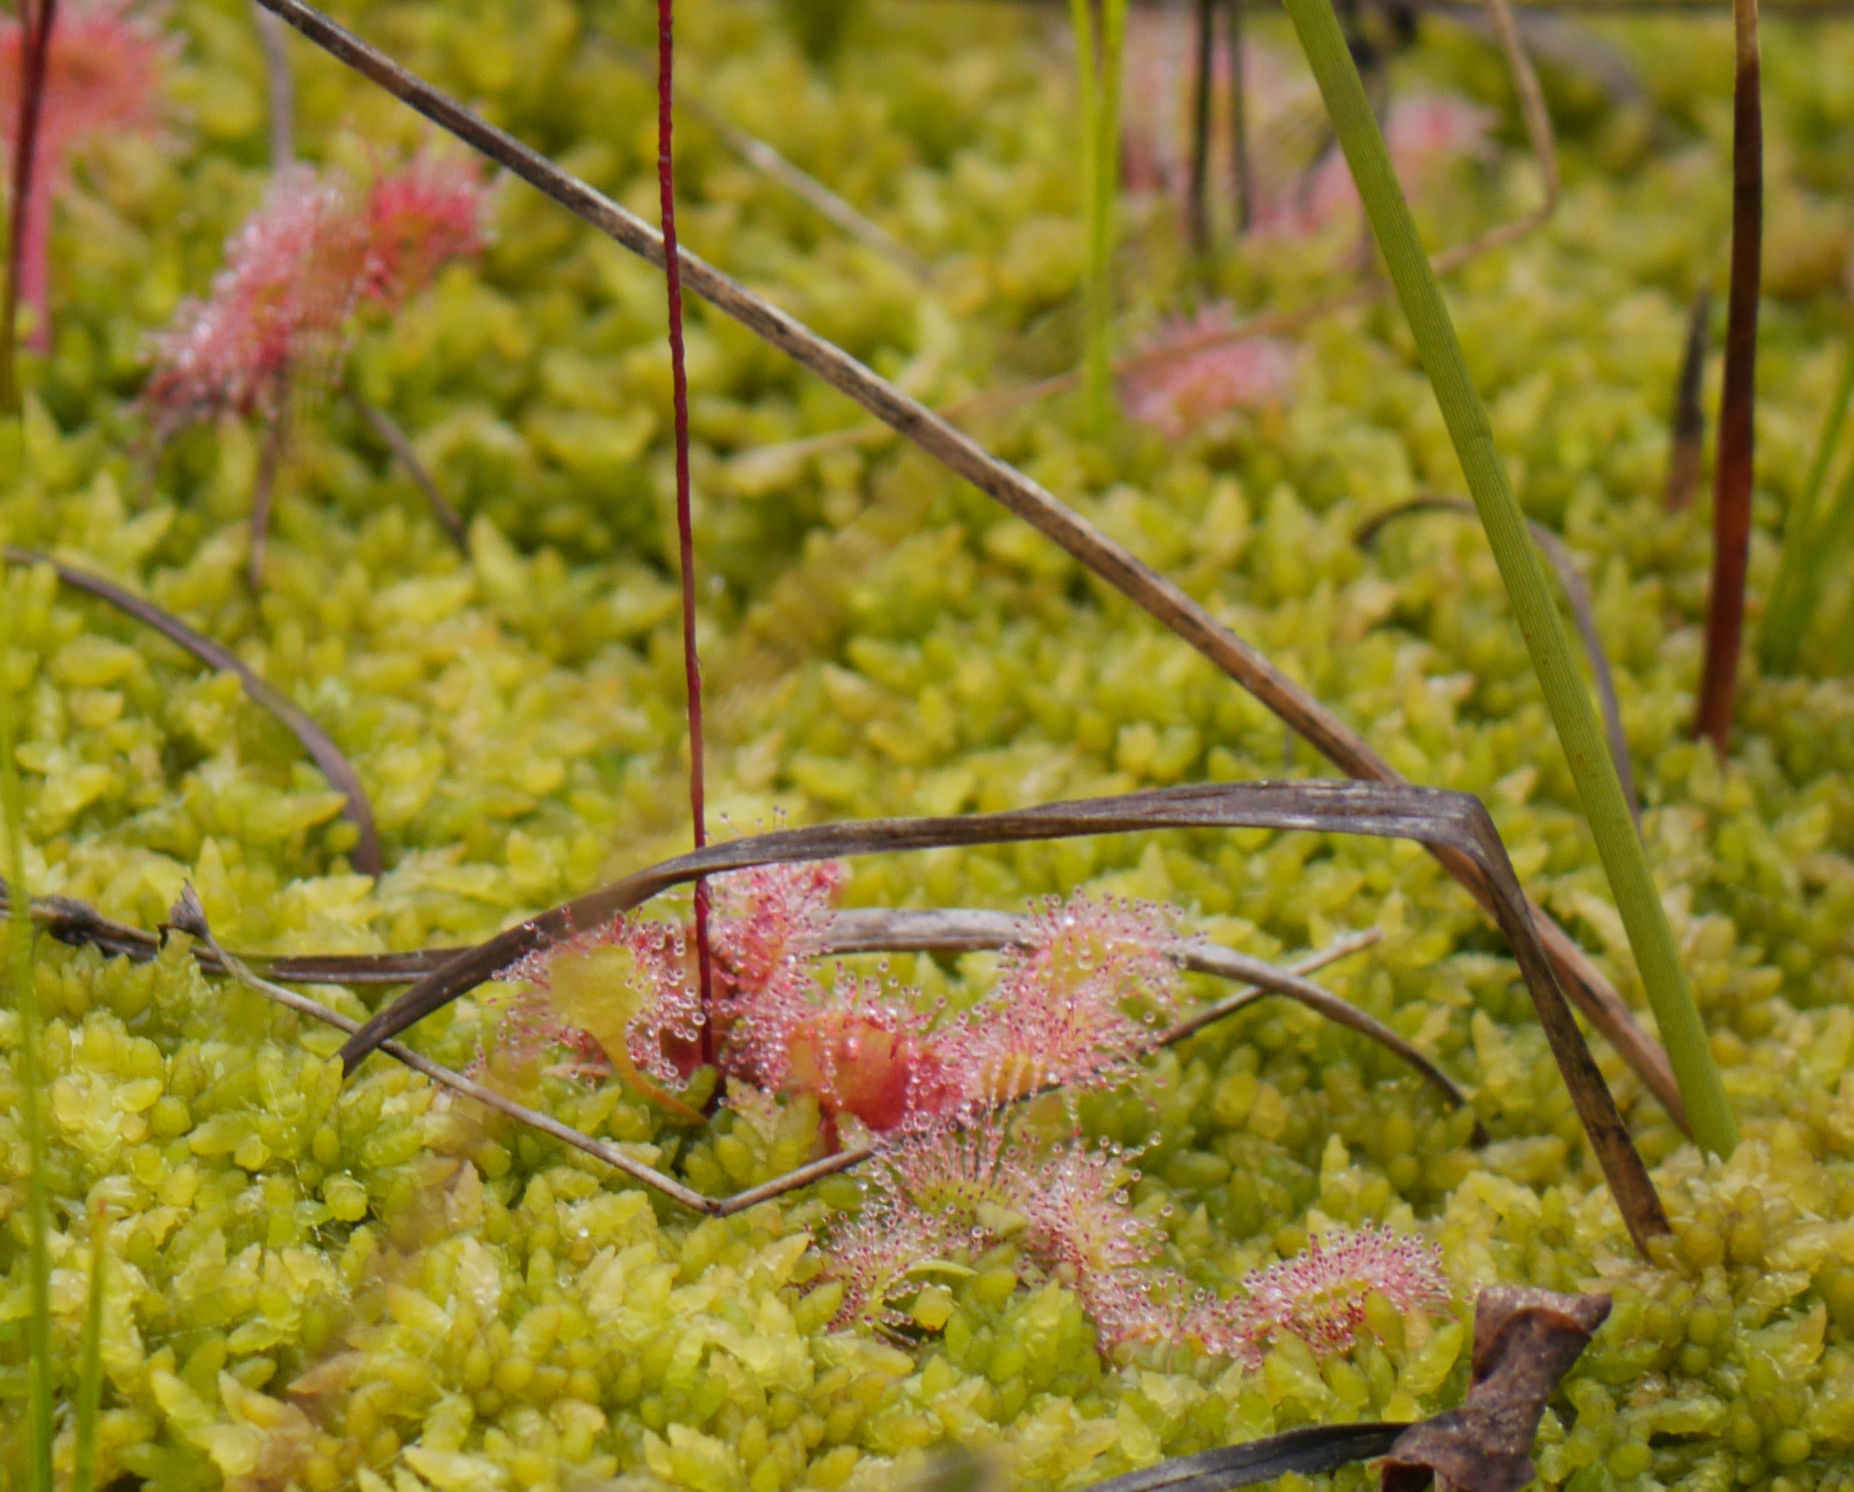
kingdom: Plantae
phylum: Tracheophyta
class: Magnoliopsida
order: Caryophyllales
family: Droseraceae
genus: Drosera
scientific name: Drosera rotundifolia
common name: Round-leaved sundew
